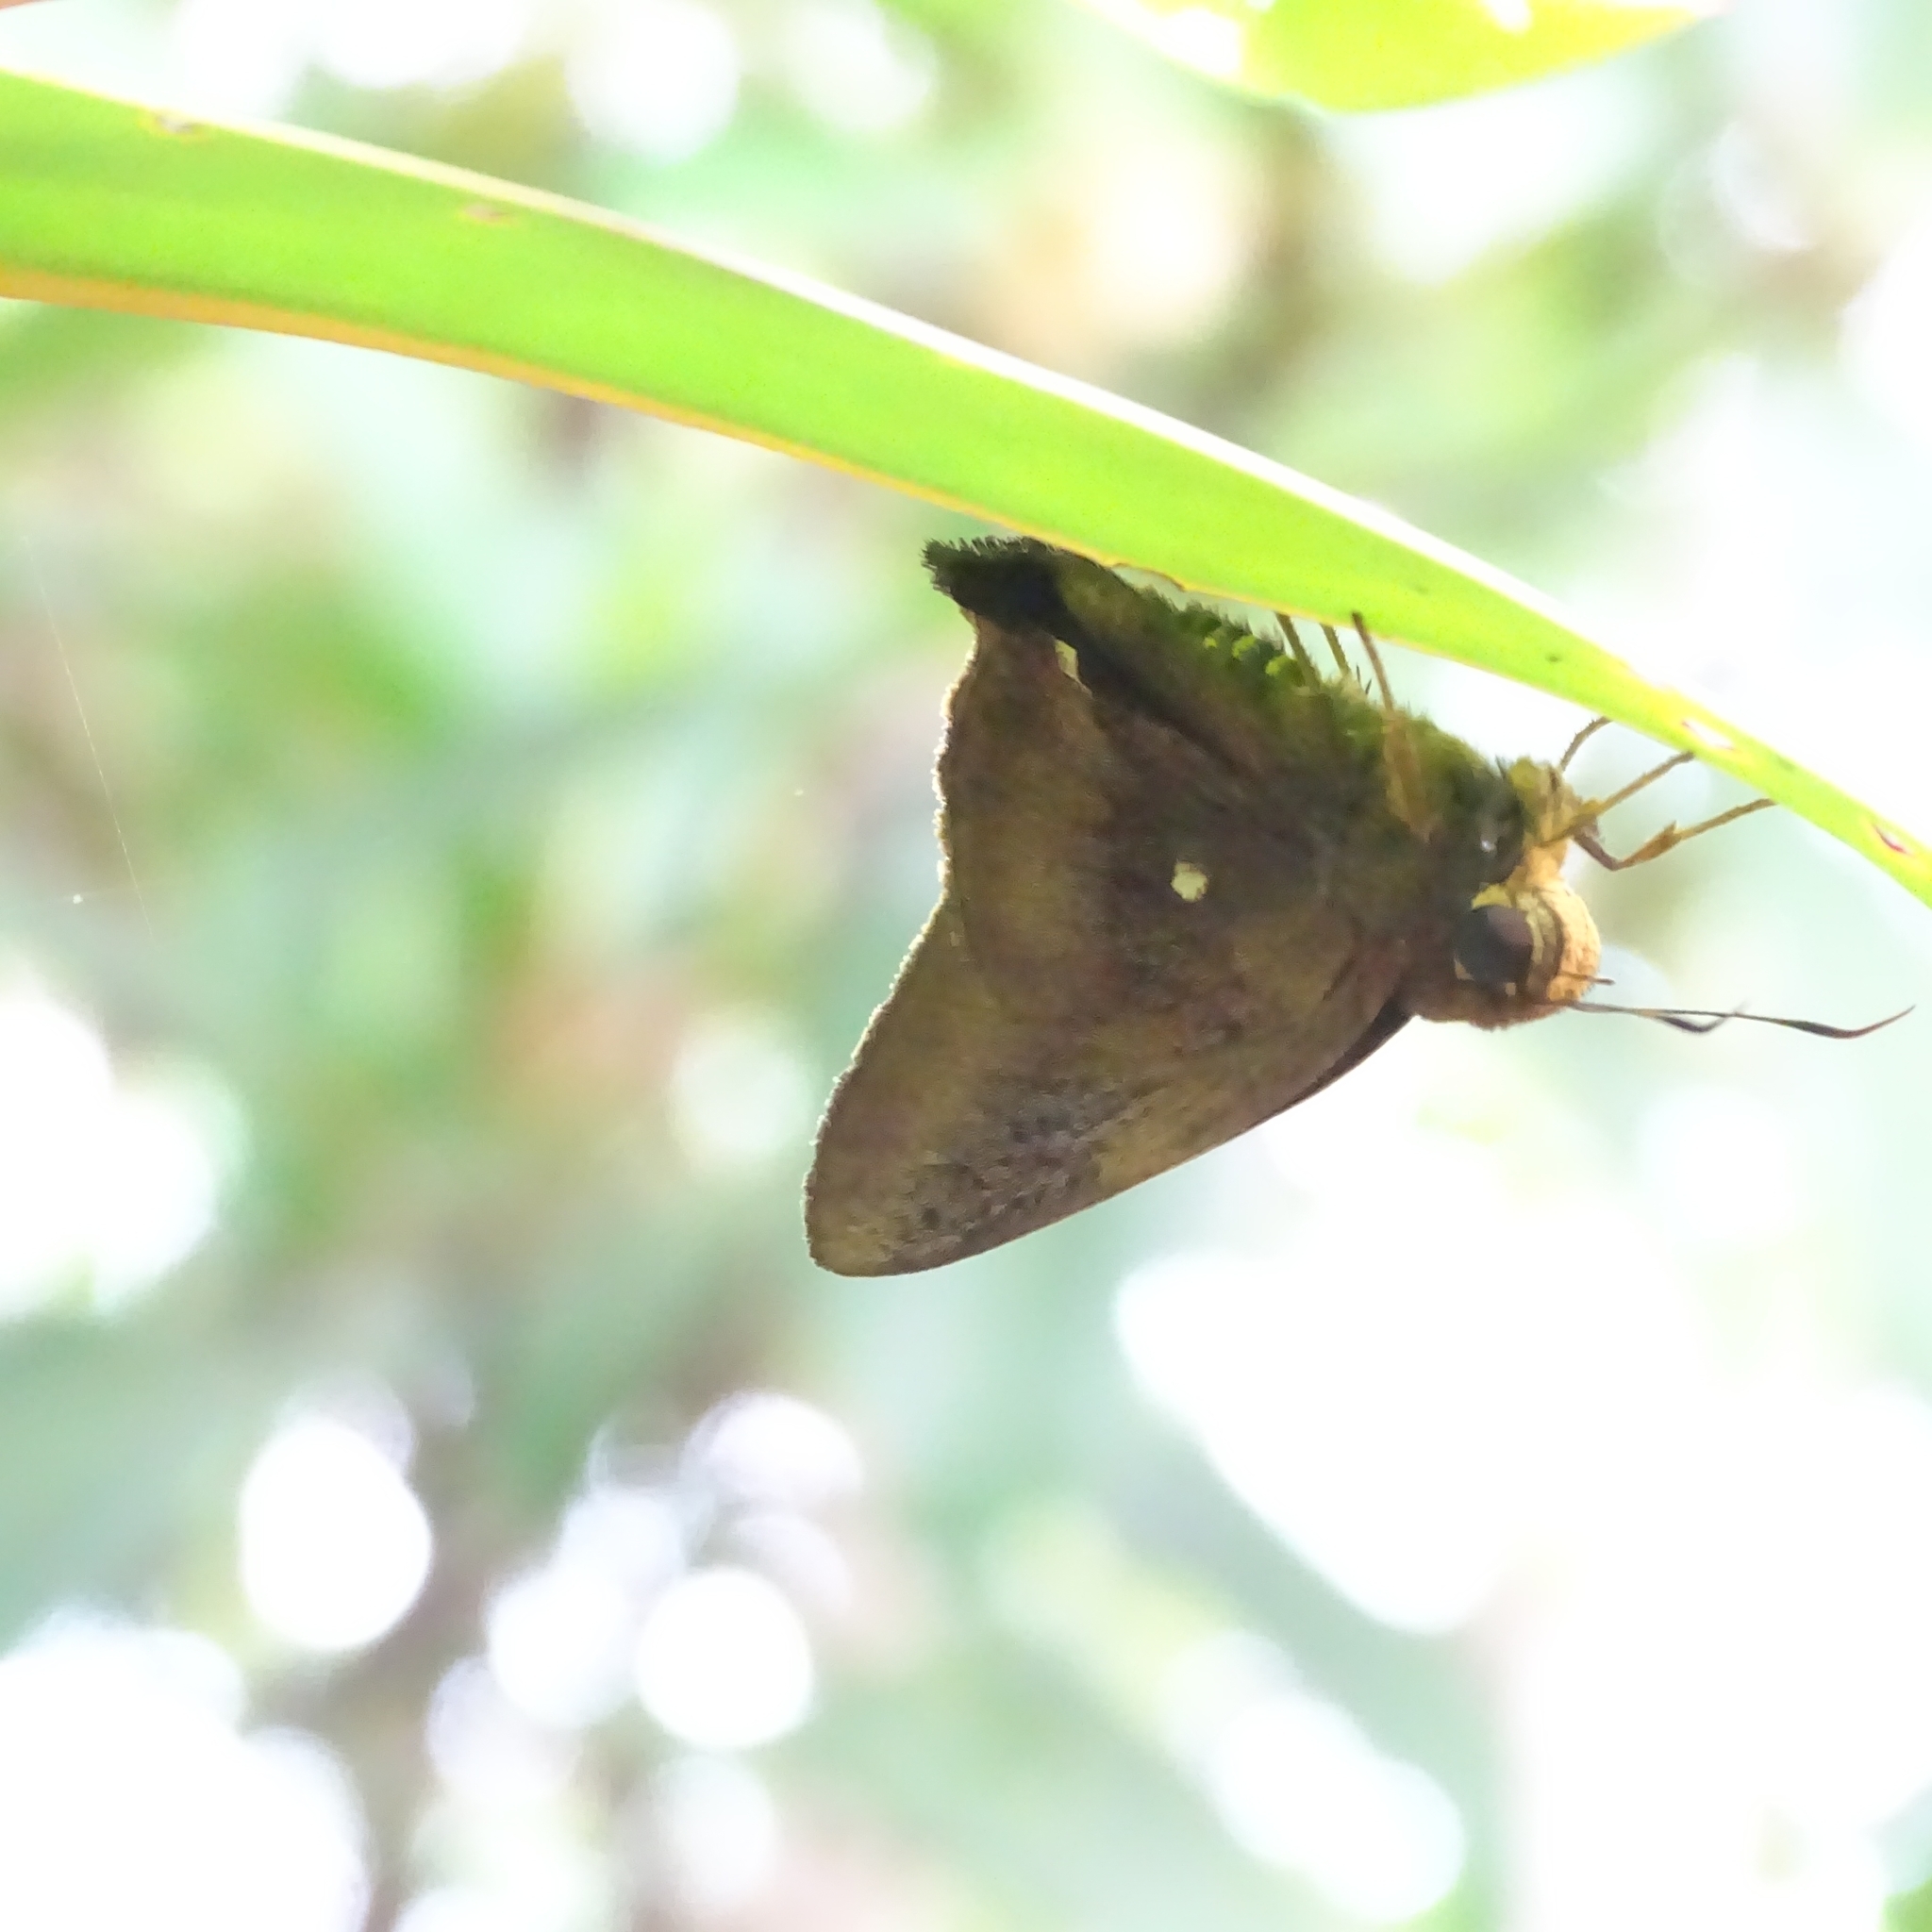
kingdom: Animalia
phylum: Arthropoda
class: Insecta
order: Lepidoptera
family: Hesperiidae
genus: Hasora
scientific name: Hasora badra
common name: Common awl
